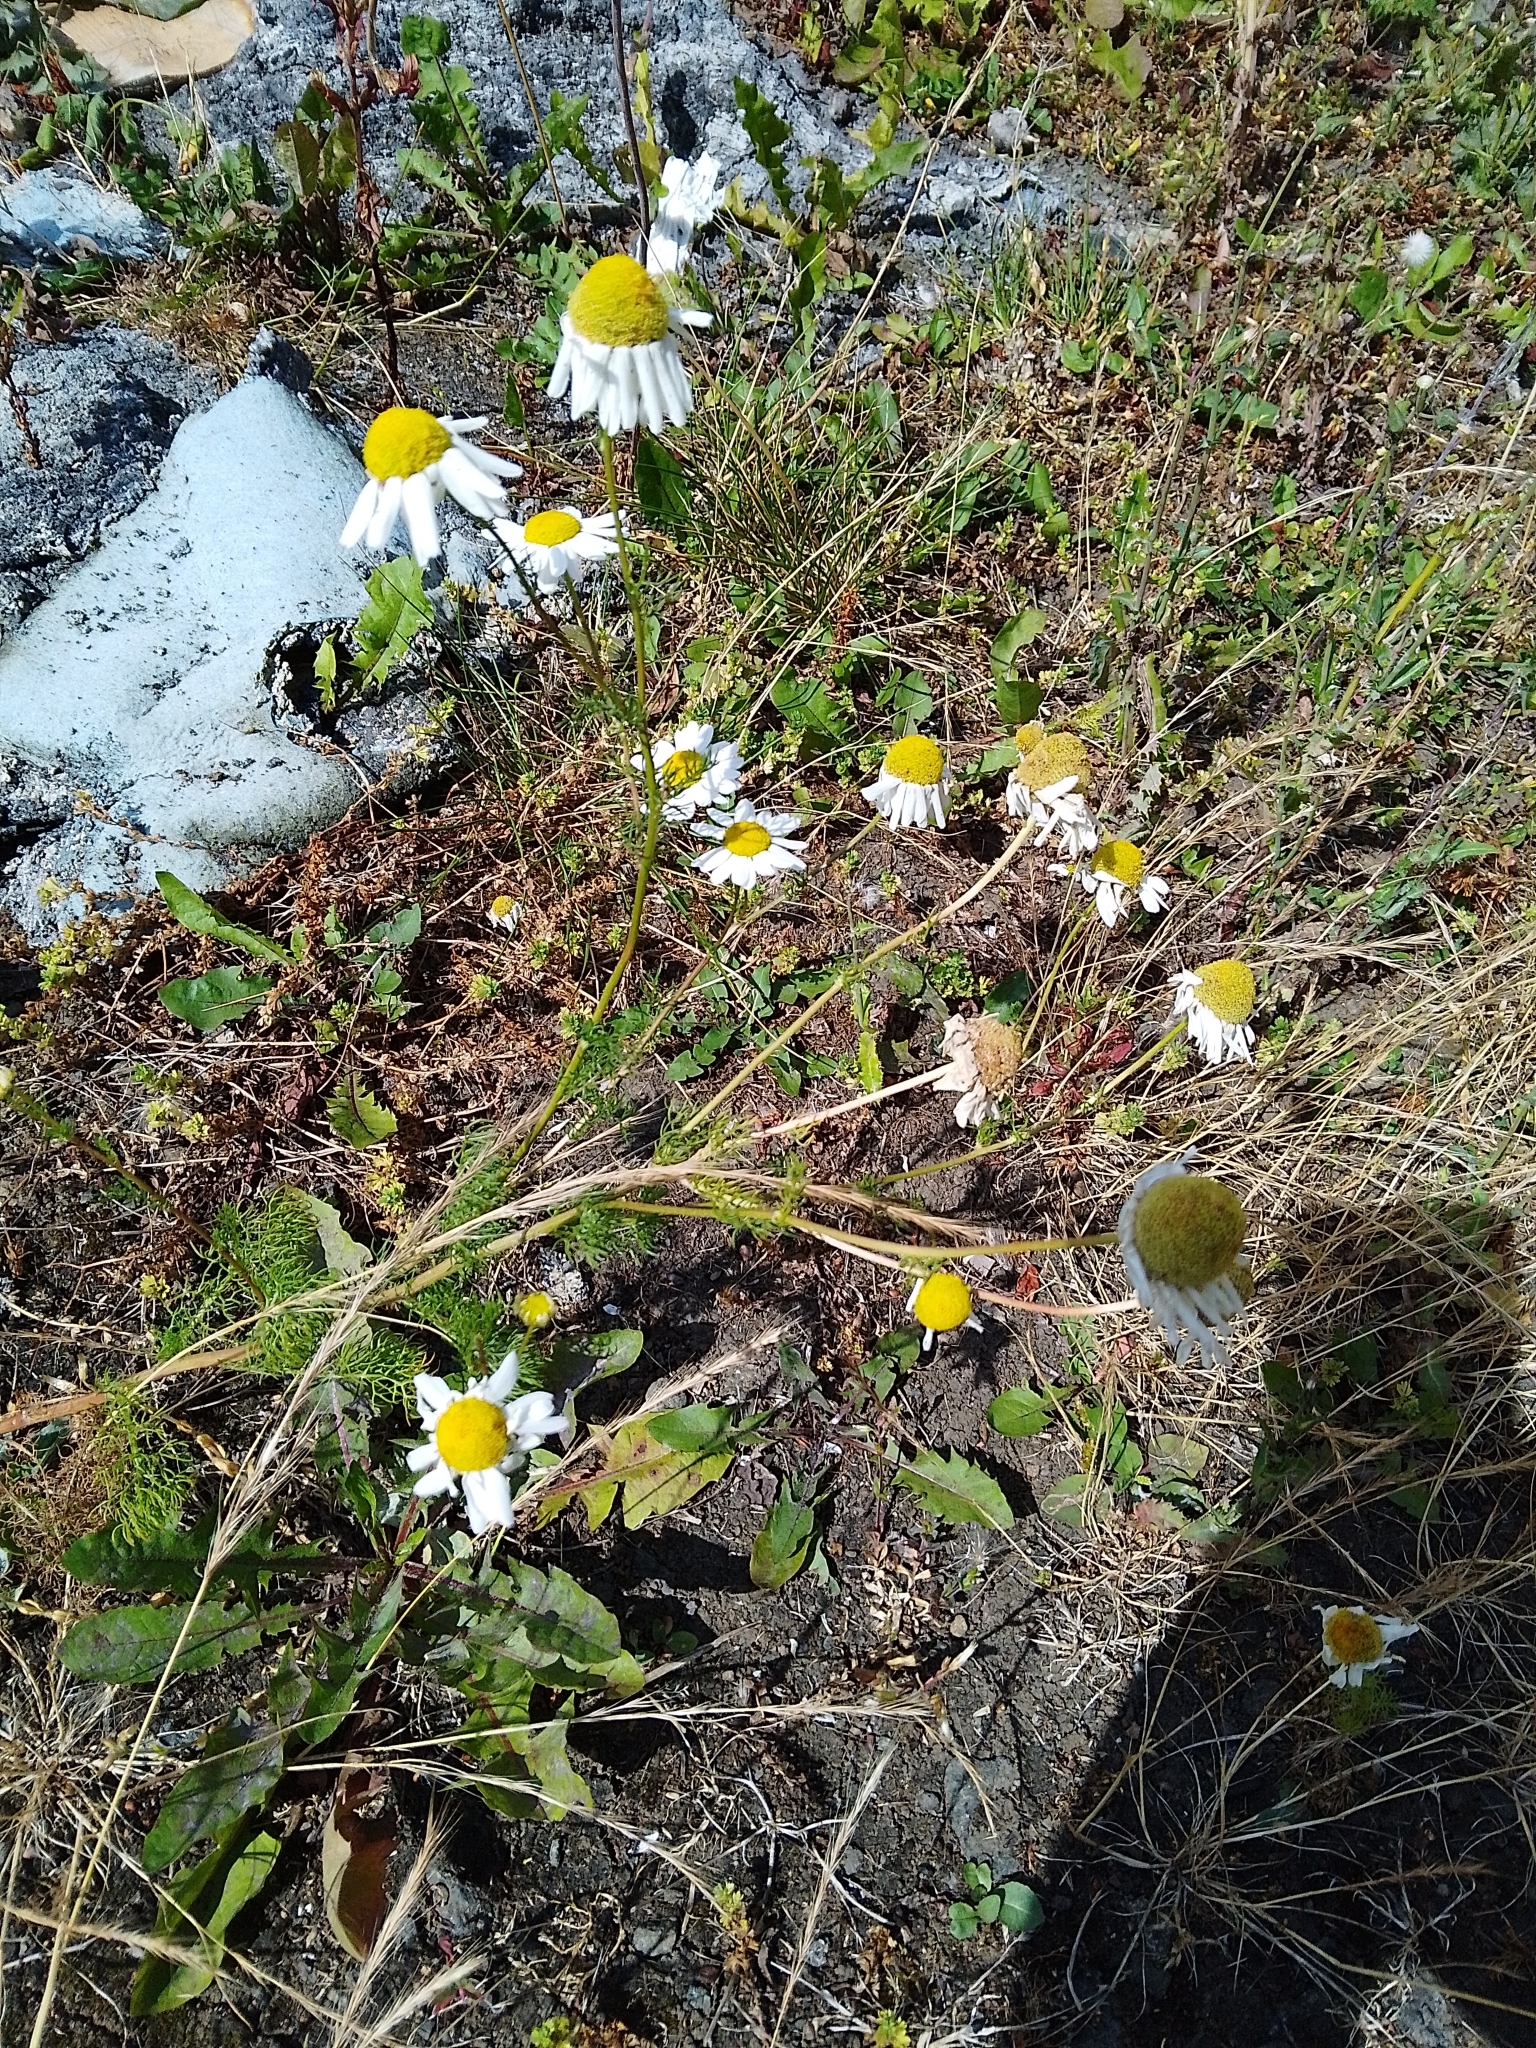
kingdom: Plantae
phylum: Tracheophyta
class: Magnoliopsida
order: Asterales
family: Asteraceae
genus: Tripleurospermum
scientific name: Tripleurospermum inodorum
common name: Scentless mayweed
